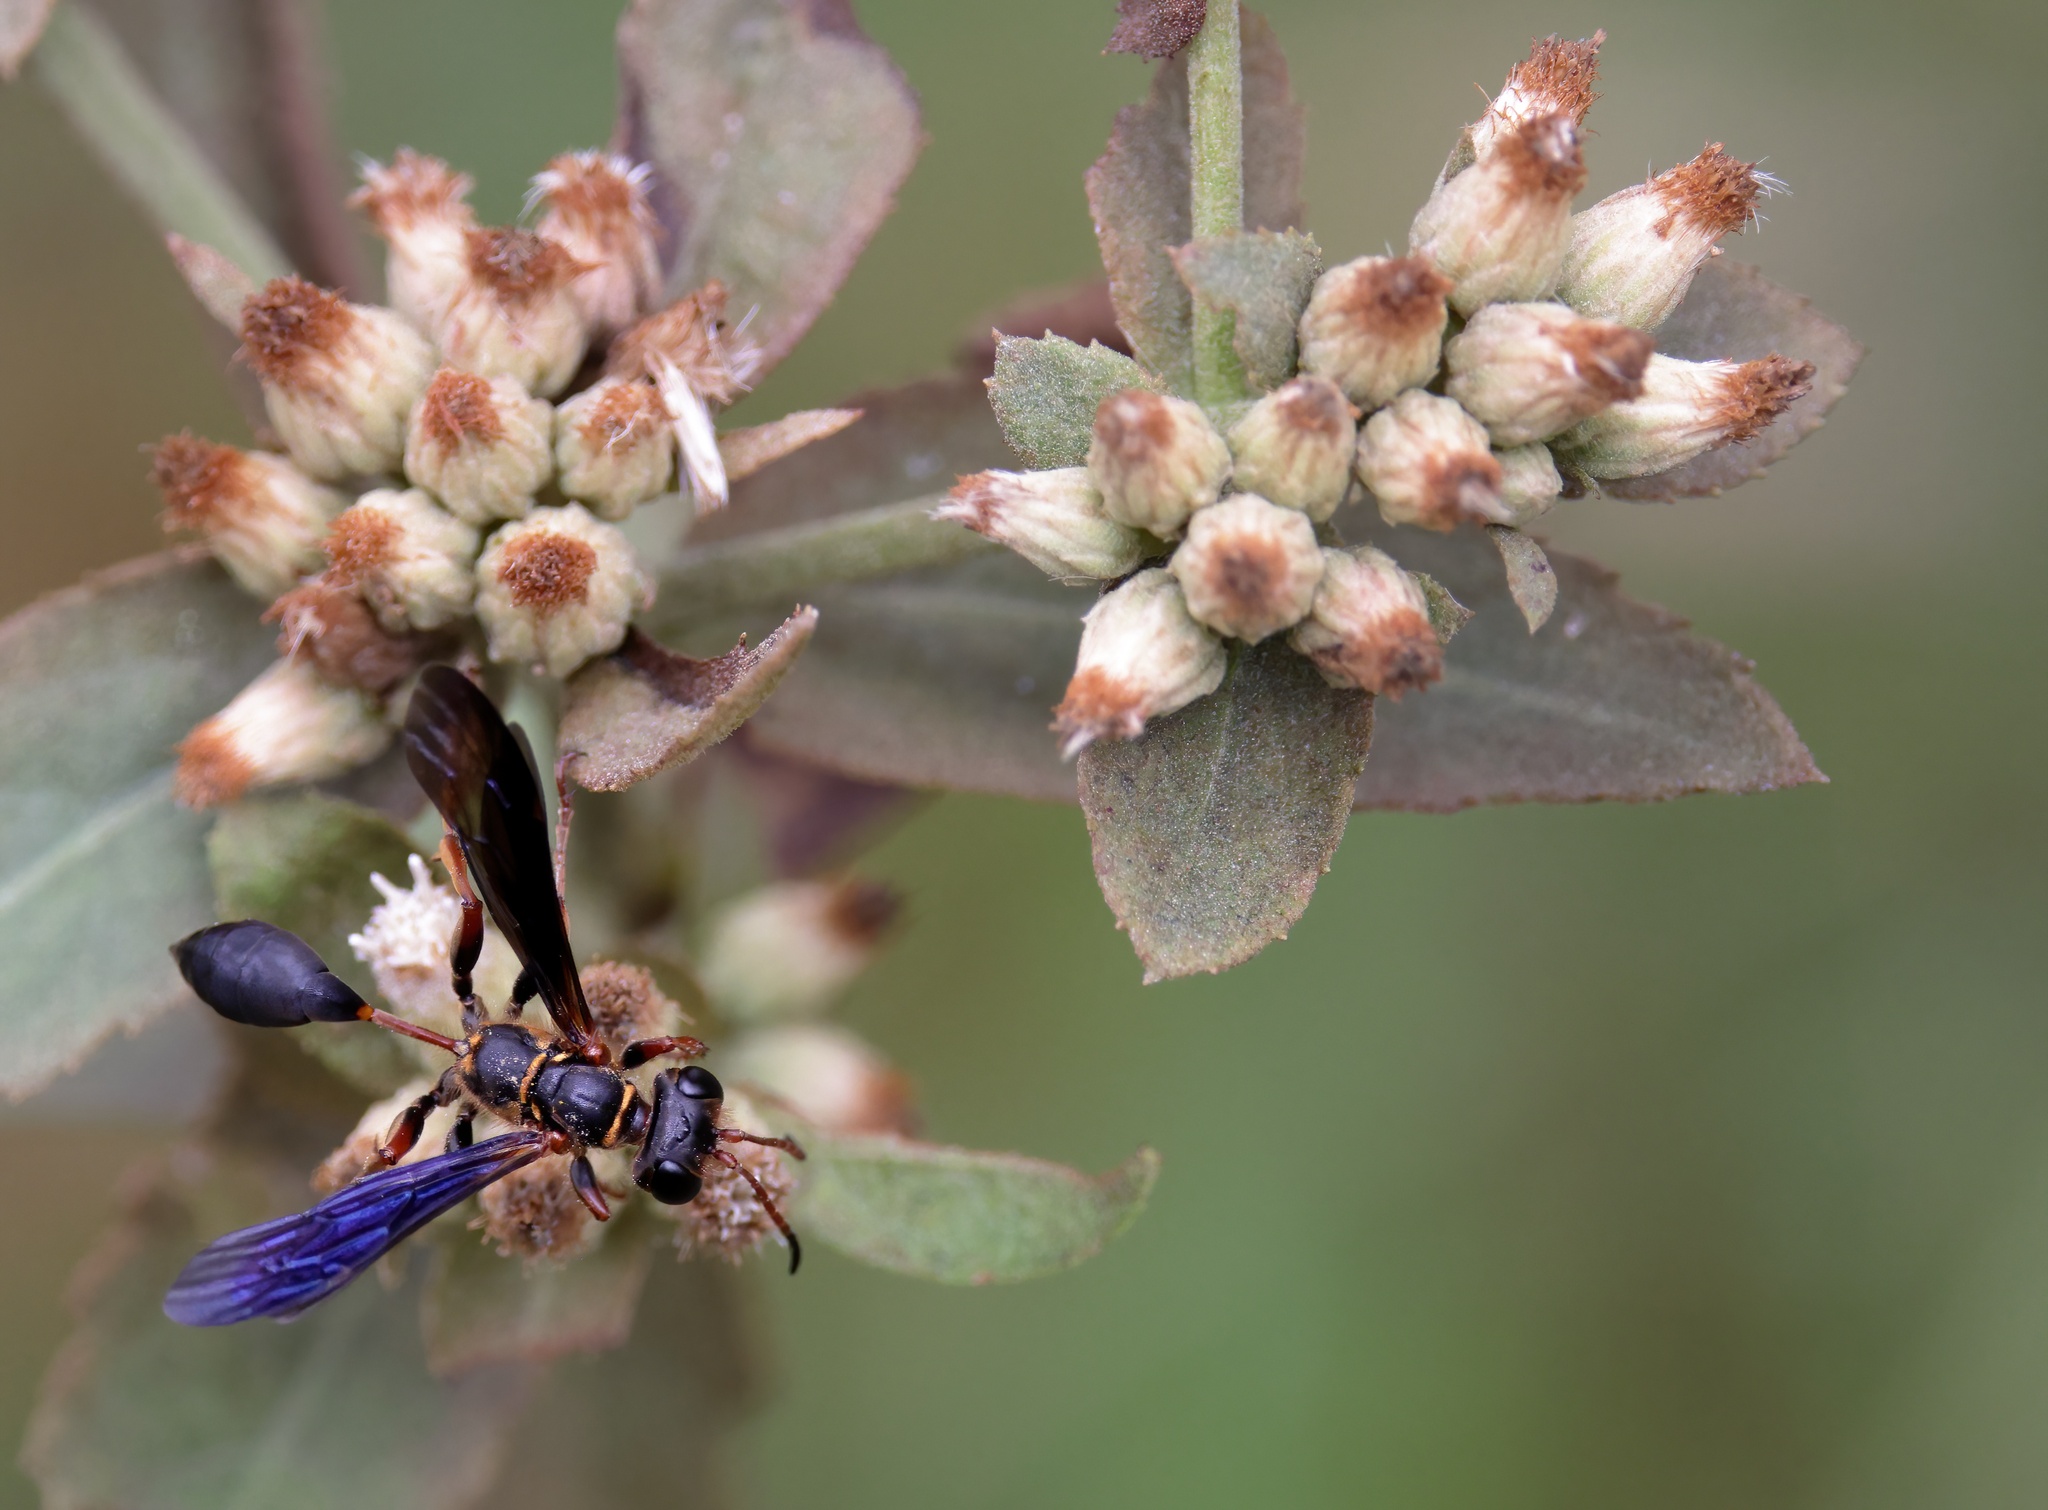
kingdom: Animalia
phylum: Arthropoda
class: Insecta
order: Hymenoptera
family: Sphecidae
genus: Isodontia
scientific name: Isodontia exornata
